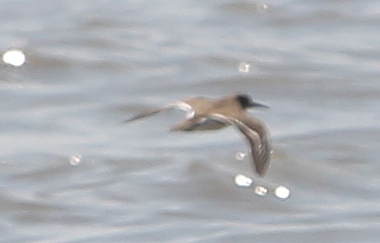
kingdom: Animalia
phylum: Chordata
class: Aves
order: Charadriiformes
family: Scolopacidae
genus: Actitis
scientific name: Actitis hypoleucos
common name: Common sandpiper
